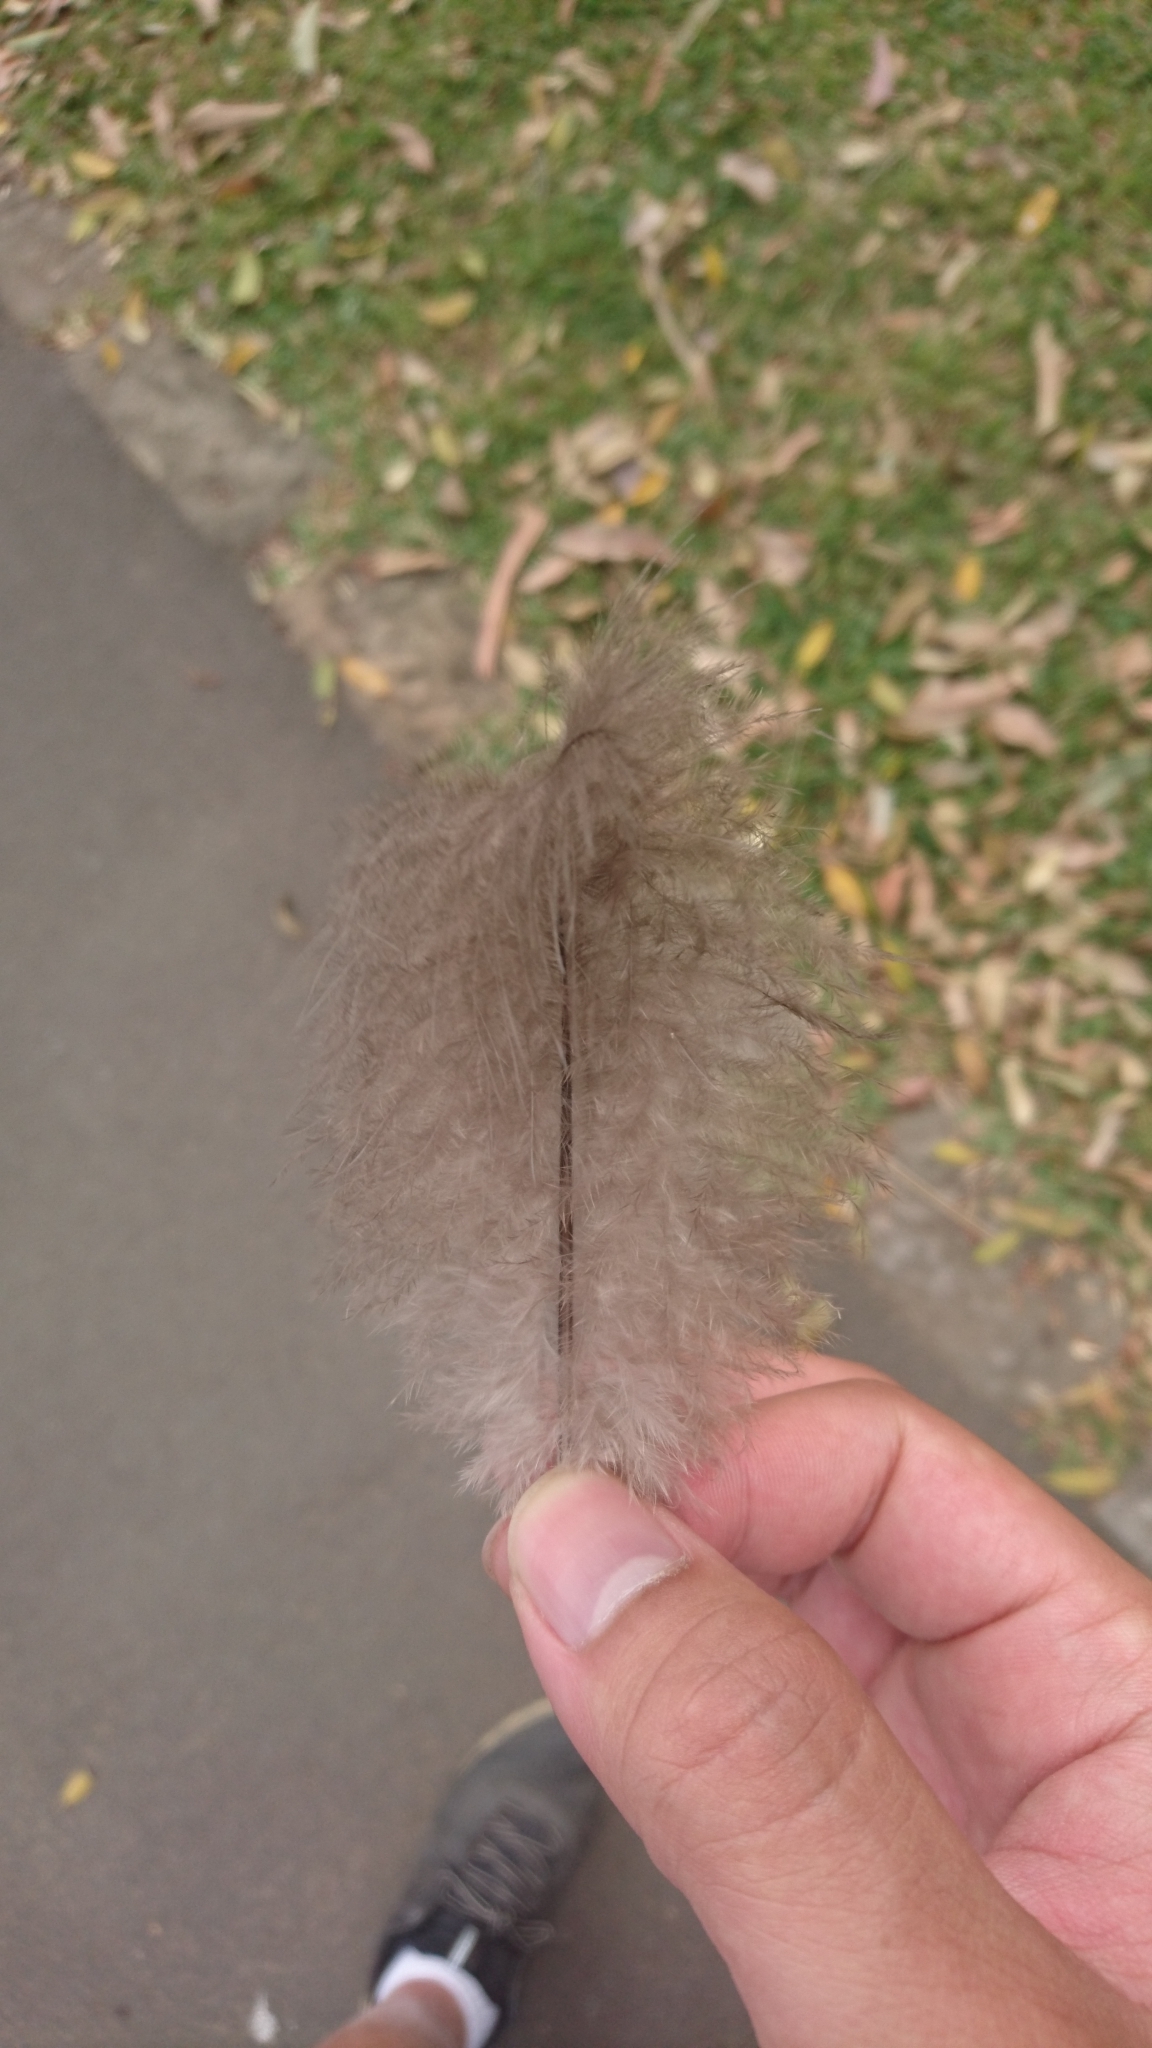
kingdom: Animalia
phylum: Chordata
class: Aves
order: Galliformes
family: Megapodiidae
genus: Alectura
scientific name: Alectura lathami
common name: Australian brushturkey
